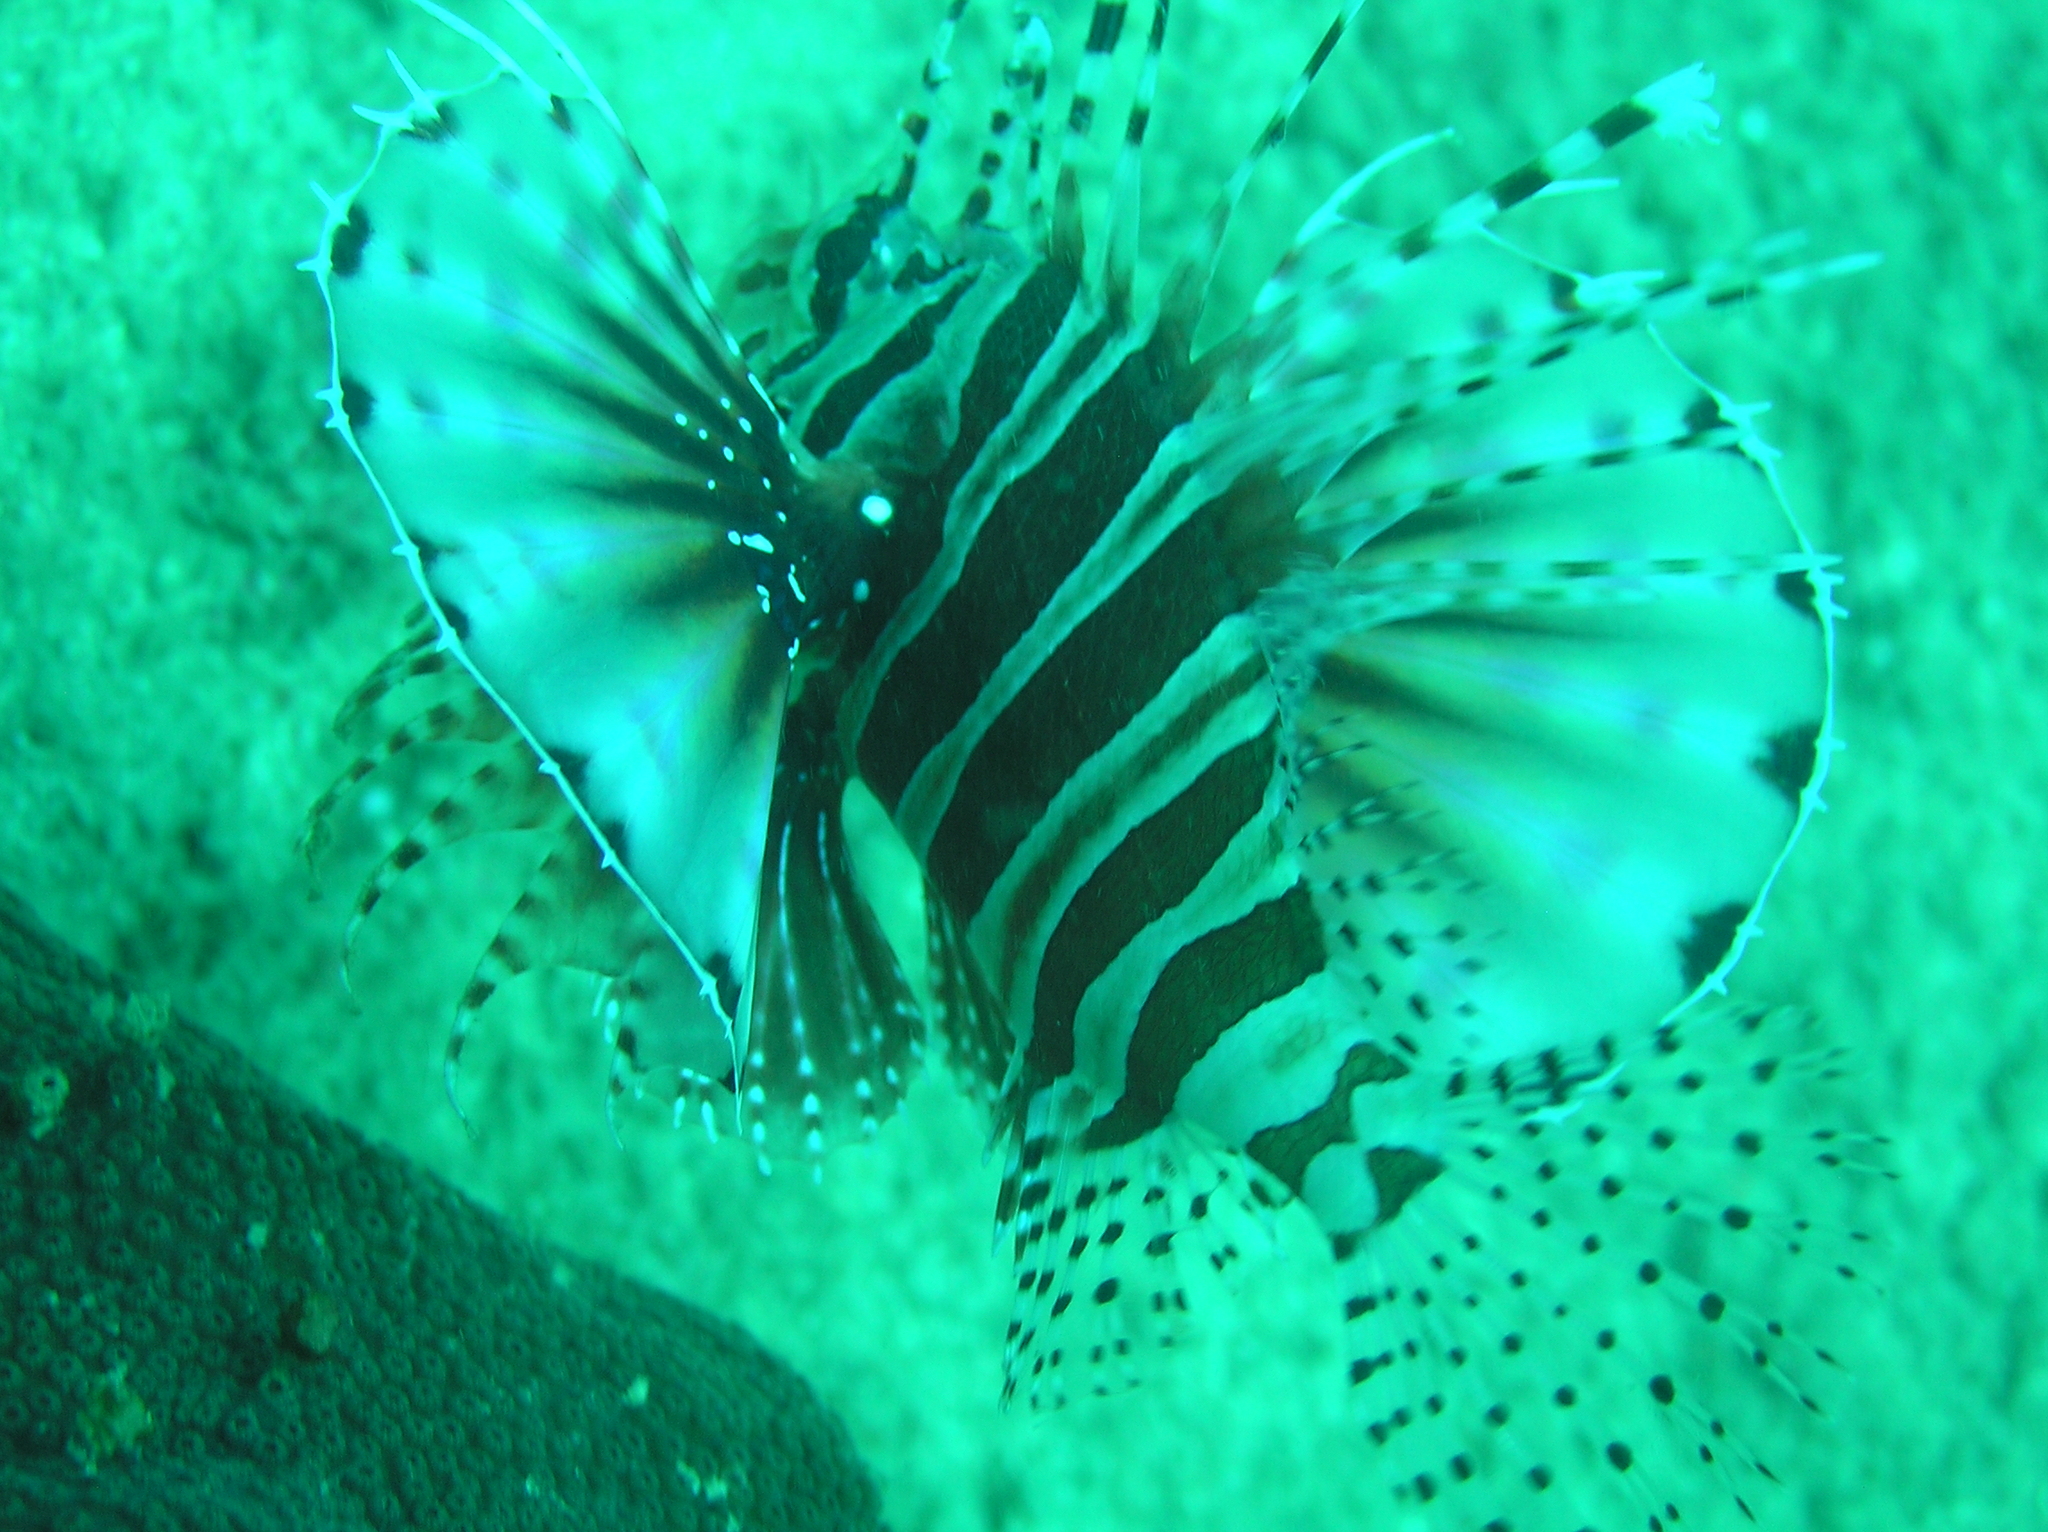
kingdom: Animalia
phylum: Chordata
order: Scorpaeniformes
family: Scorpaenidae
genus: Dendrochirus
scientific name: Dendrochirus zebra
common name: Zebra lionfish
